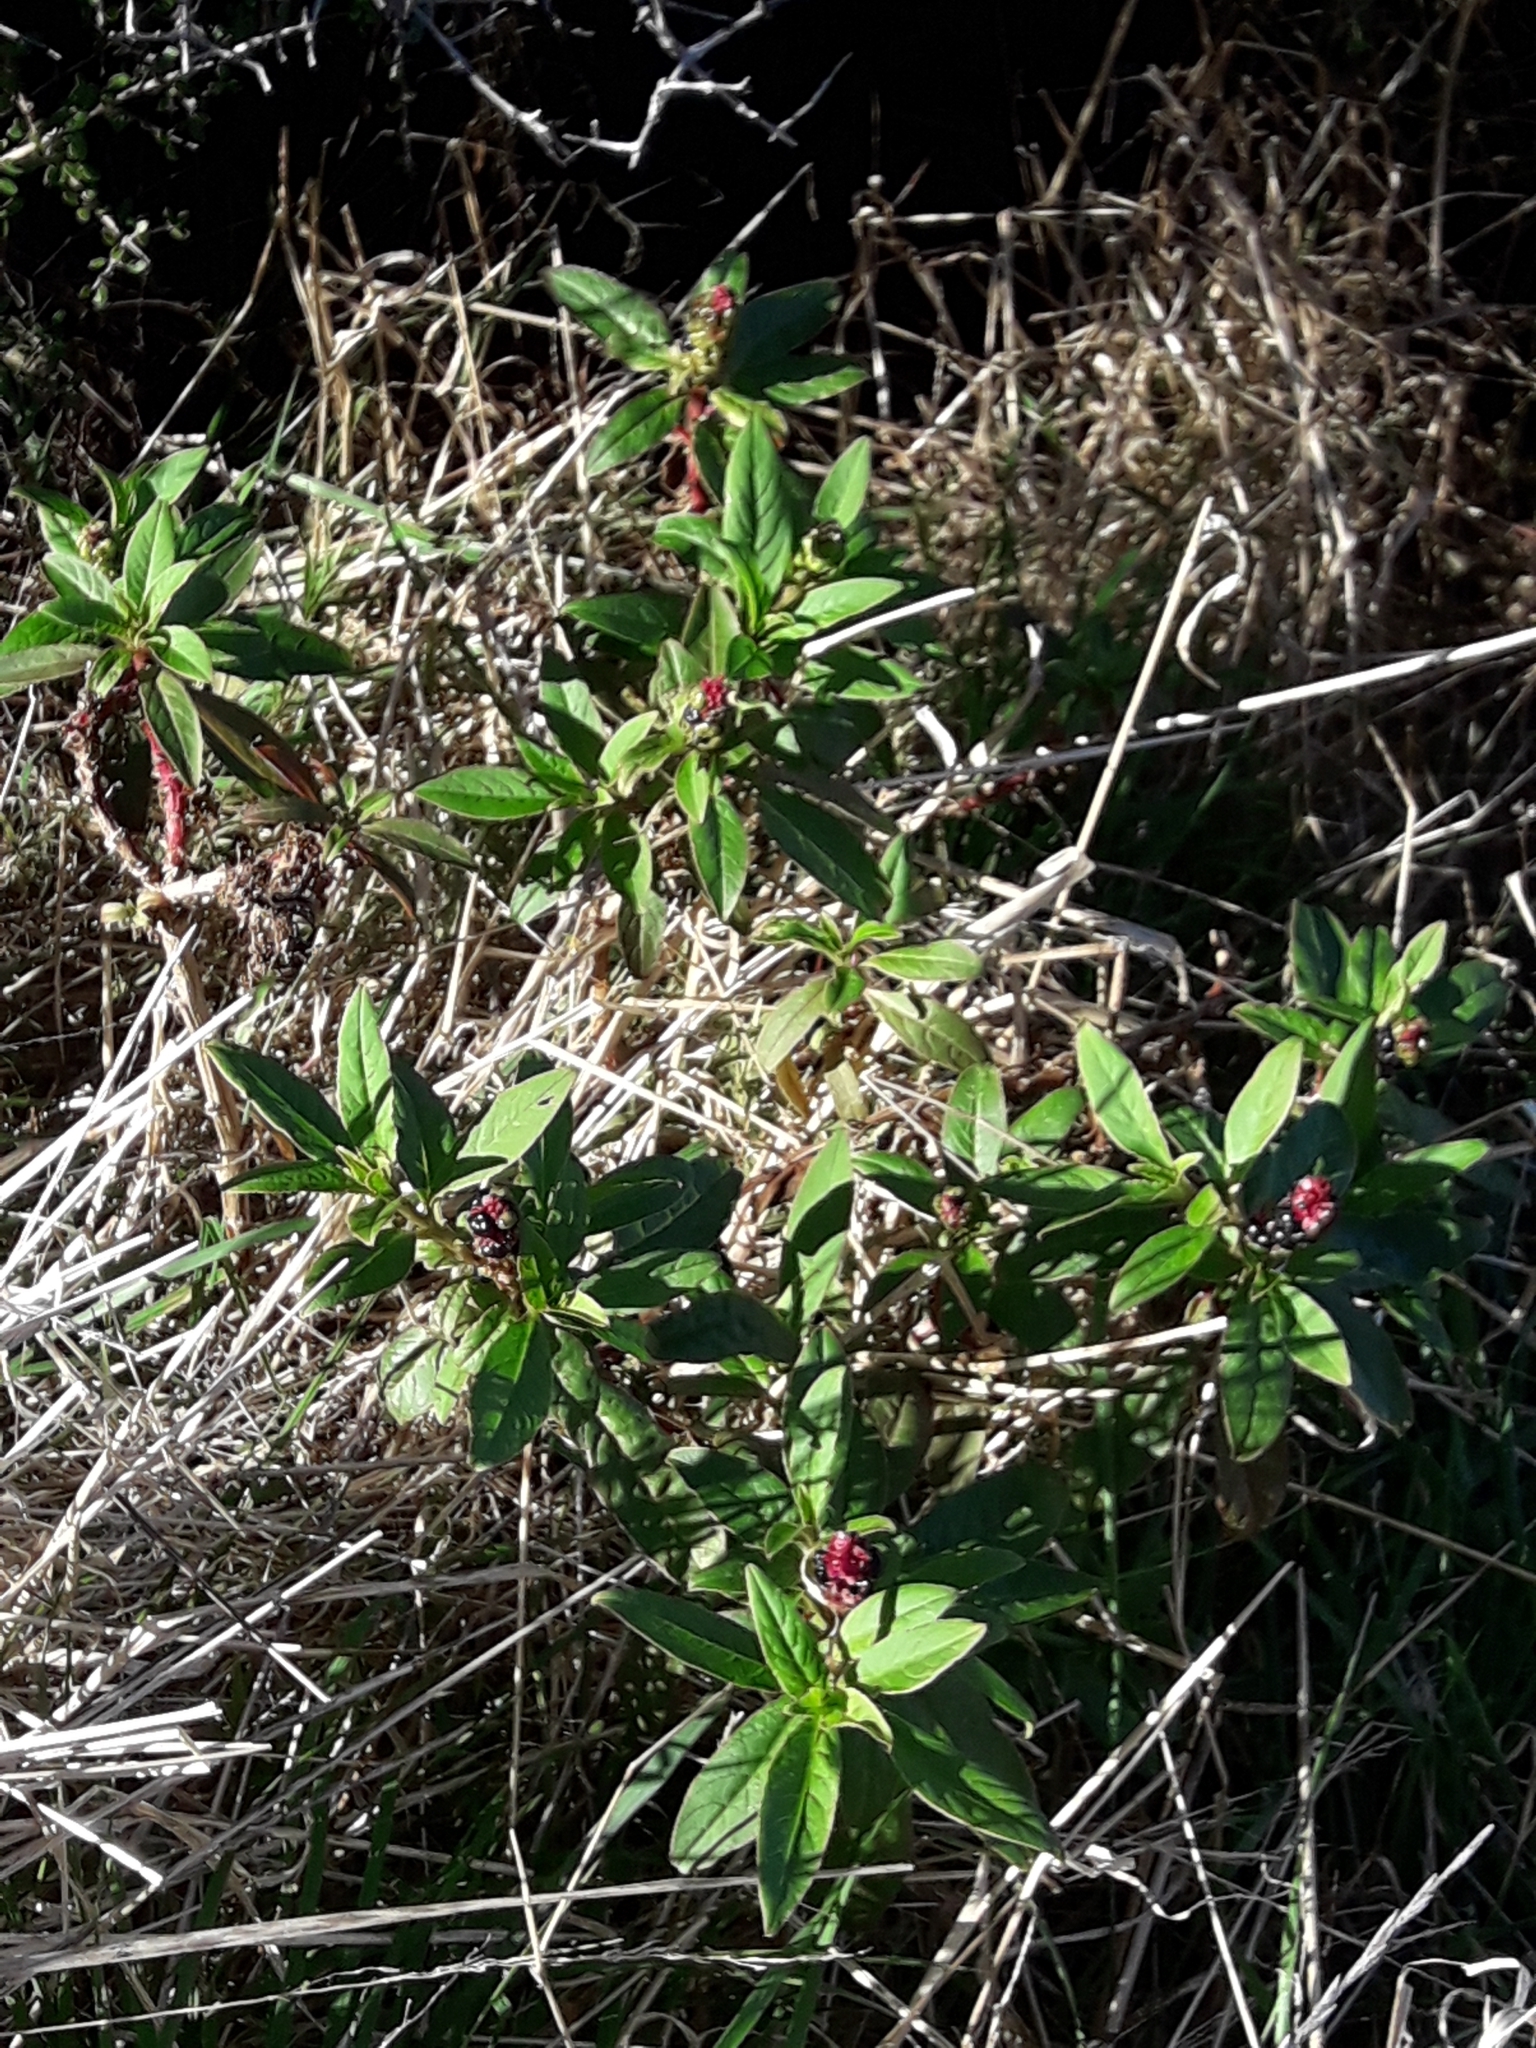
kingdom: Plantae
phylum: Tracheophyta
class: Magnoliopsida
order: Caryophyllales
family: Phytolaccaceae
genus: Phytolacca
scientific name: Phytolacca icosandra
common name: Button pokeweed
